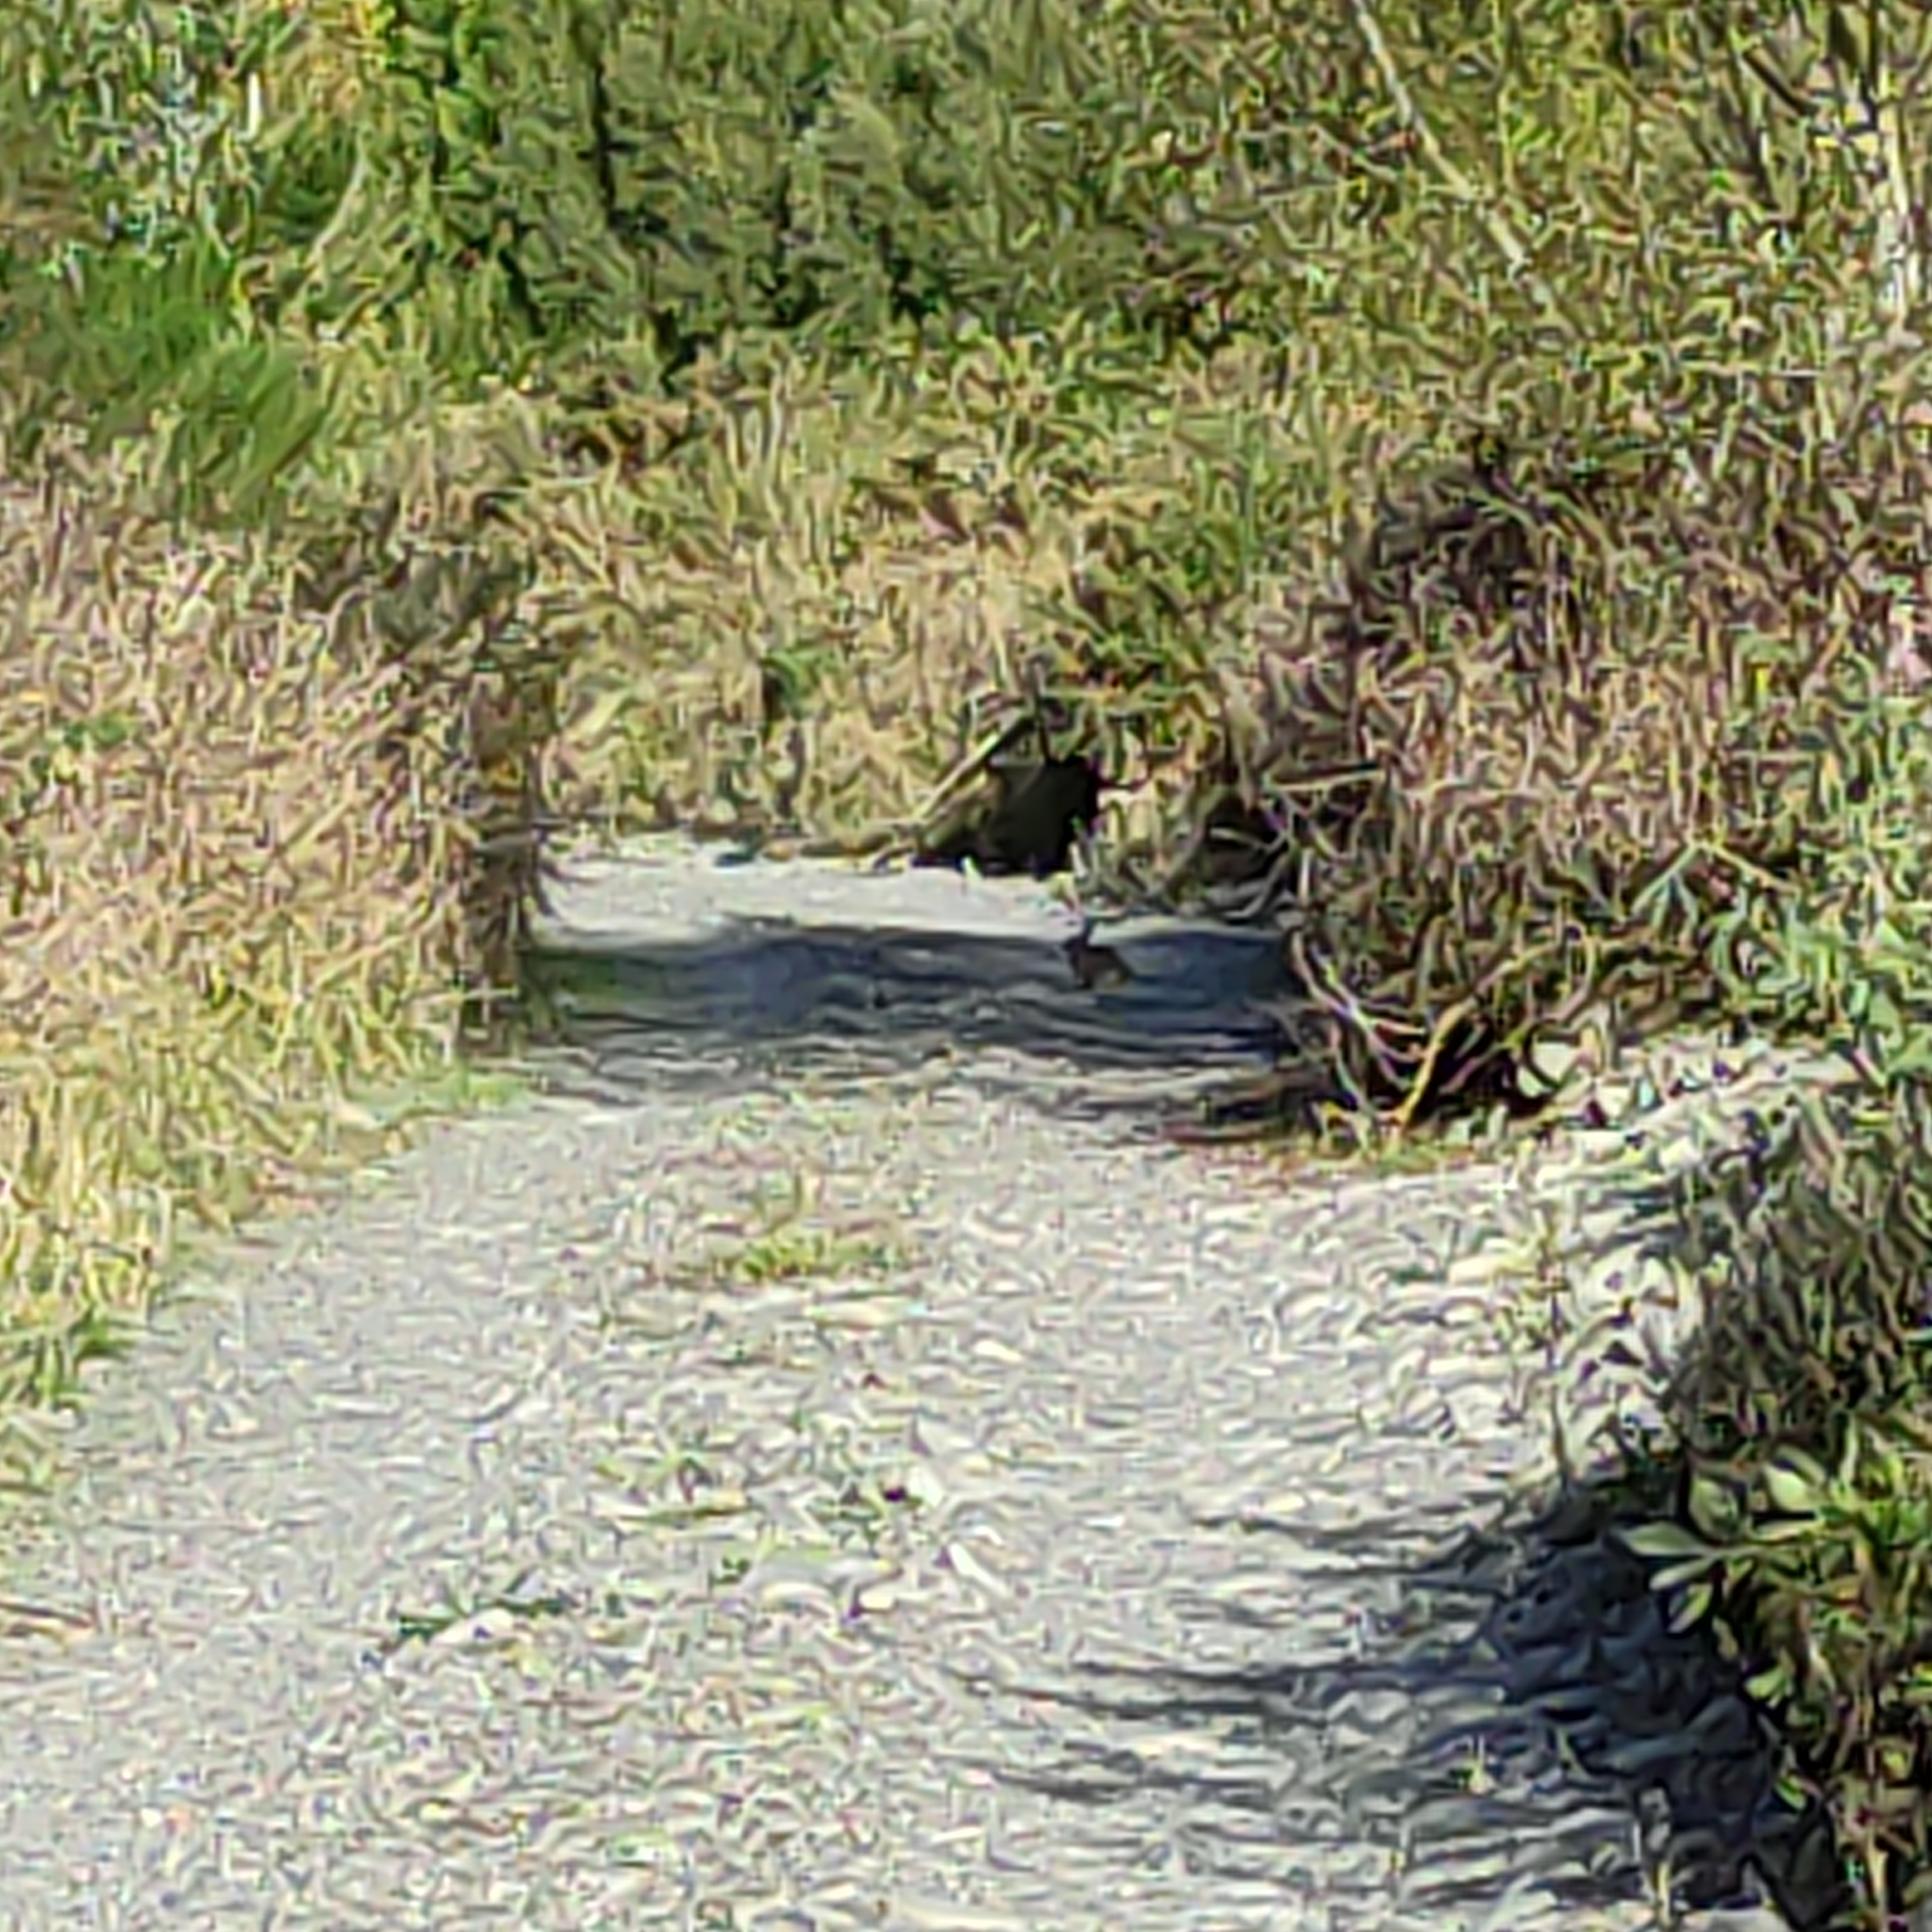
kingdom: Animalia
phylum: Chordata
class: Mammalia
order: Lagomorpha
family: Leporidae
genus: Lepus
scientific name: Lepus europaeus
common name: European hare
